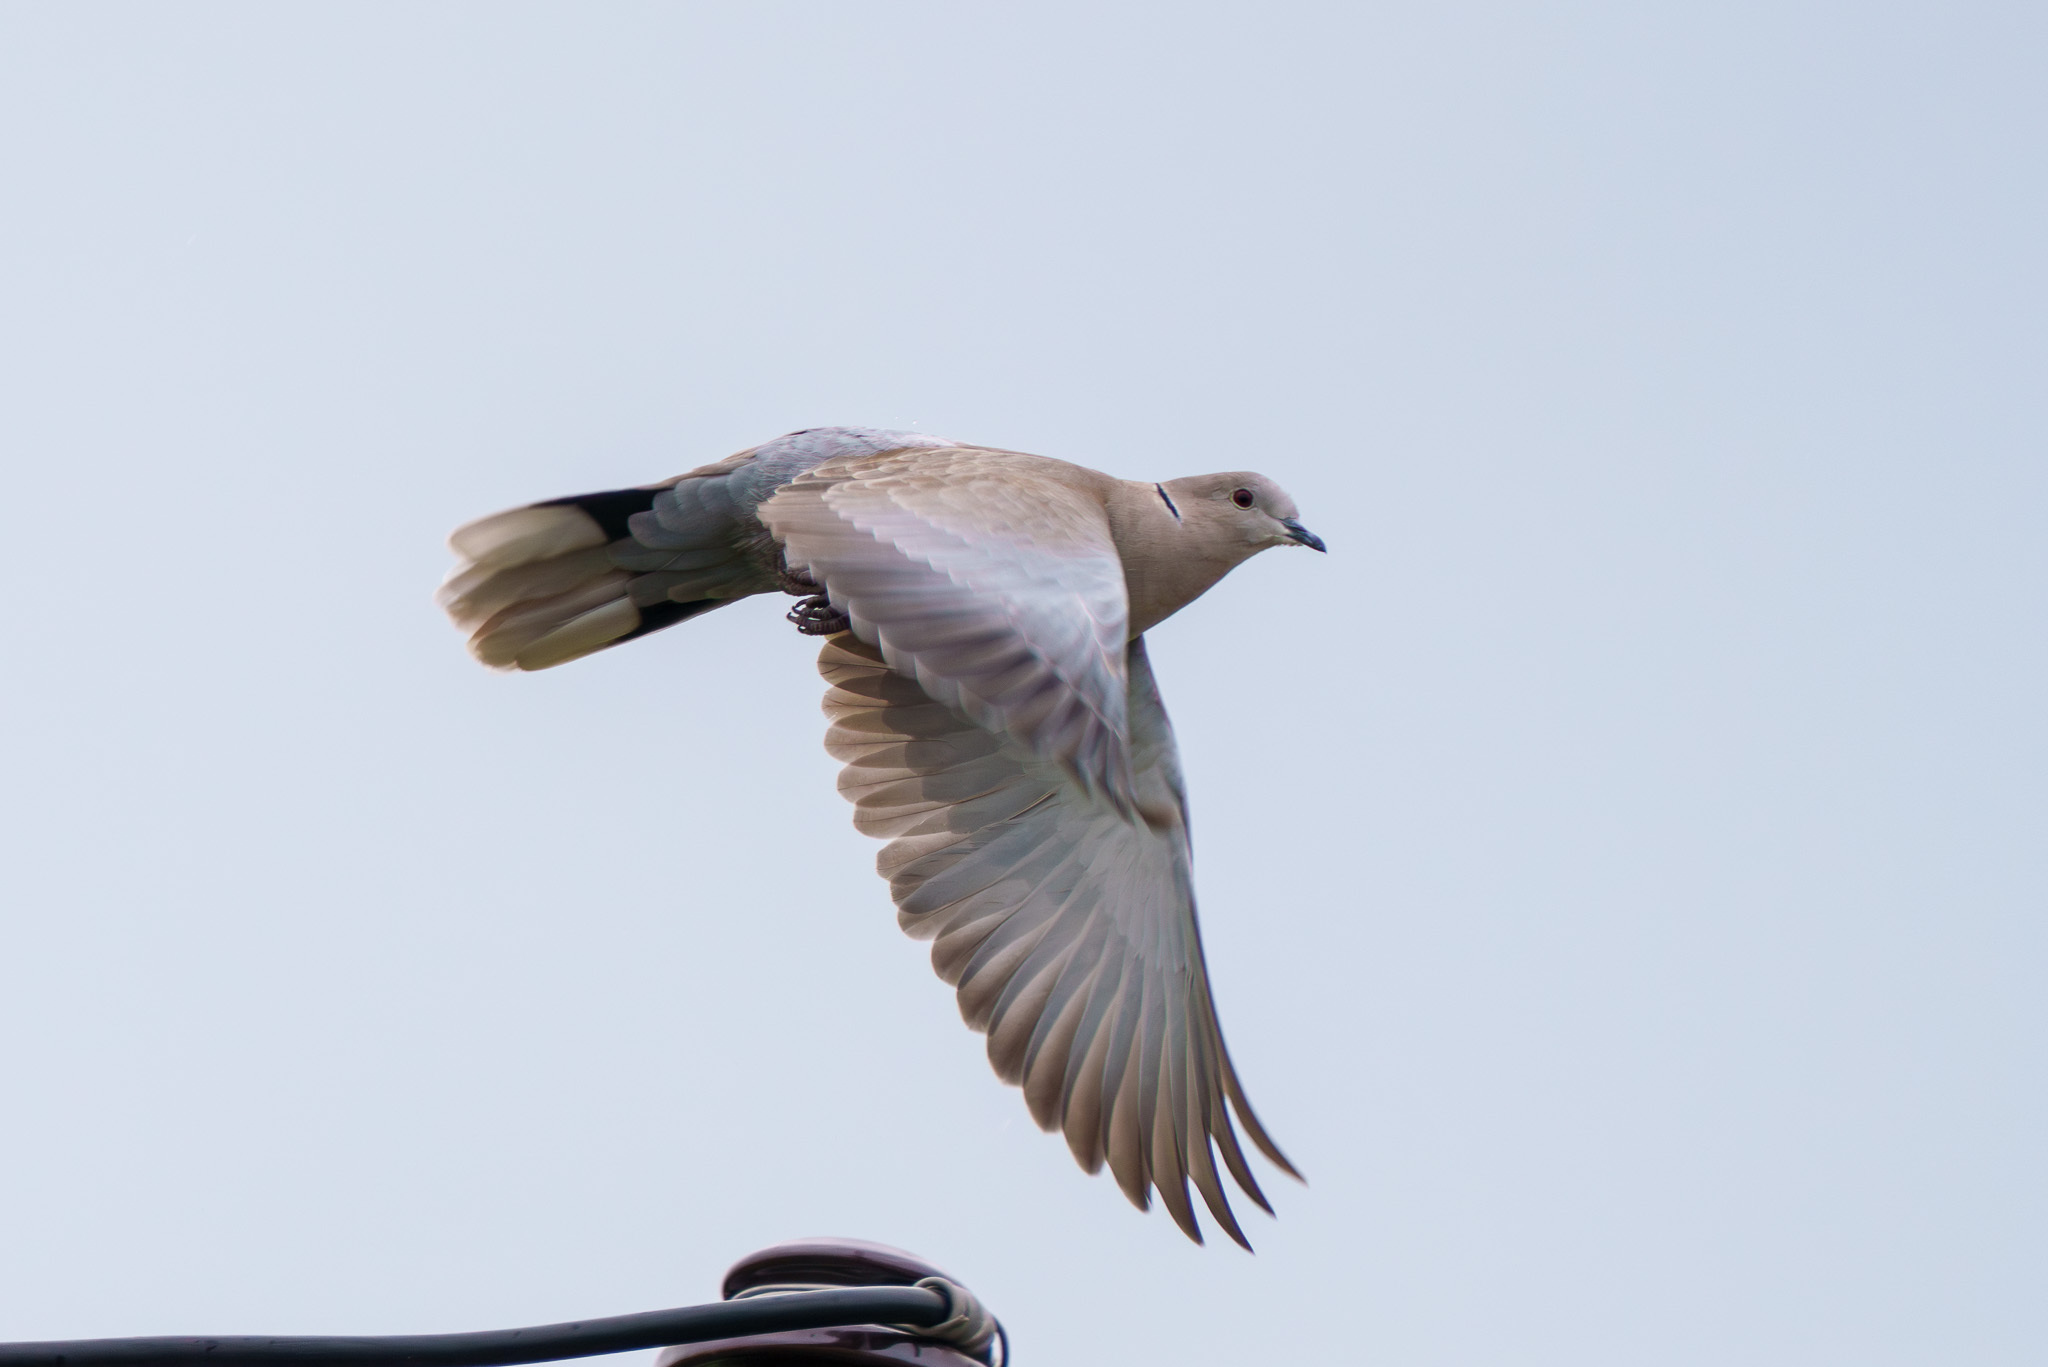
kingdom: Animalia
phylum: Chordata
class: Aves
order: Columbiformes
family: Columbidae
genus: Streptopelia
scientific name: Streptopelia decaocto
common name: Eurasian collared dove
